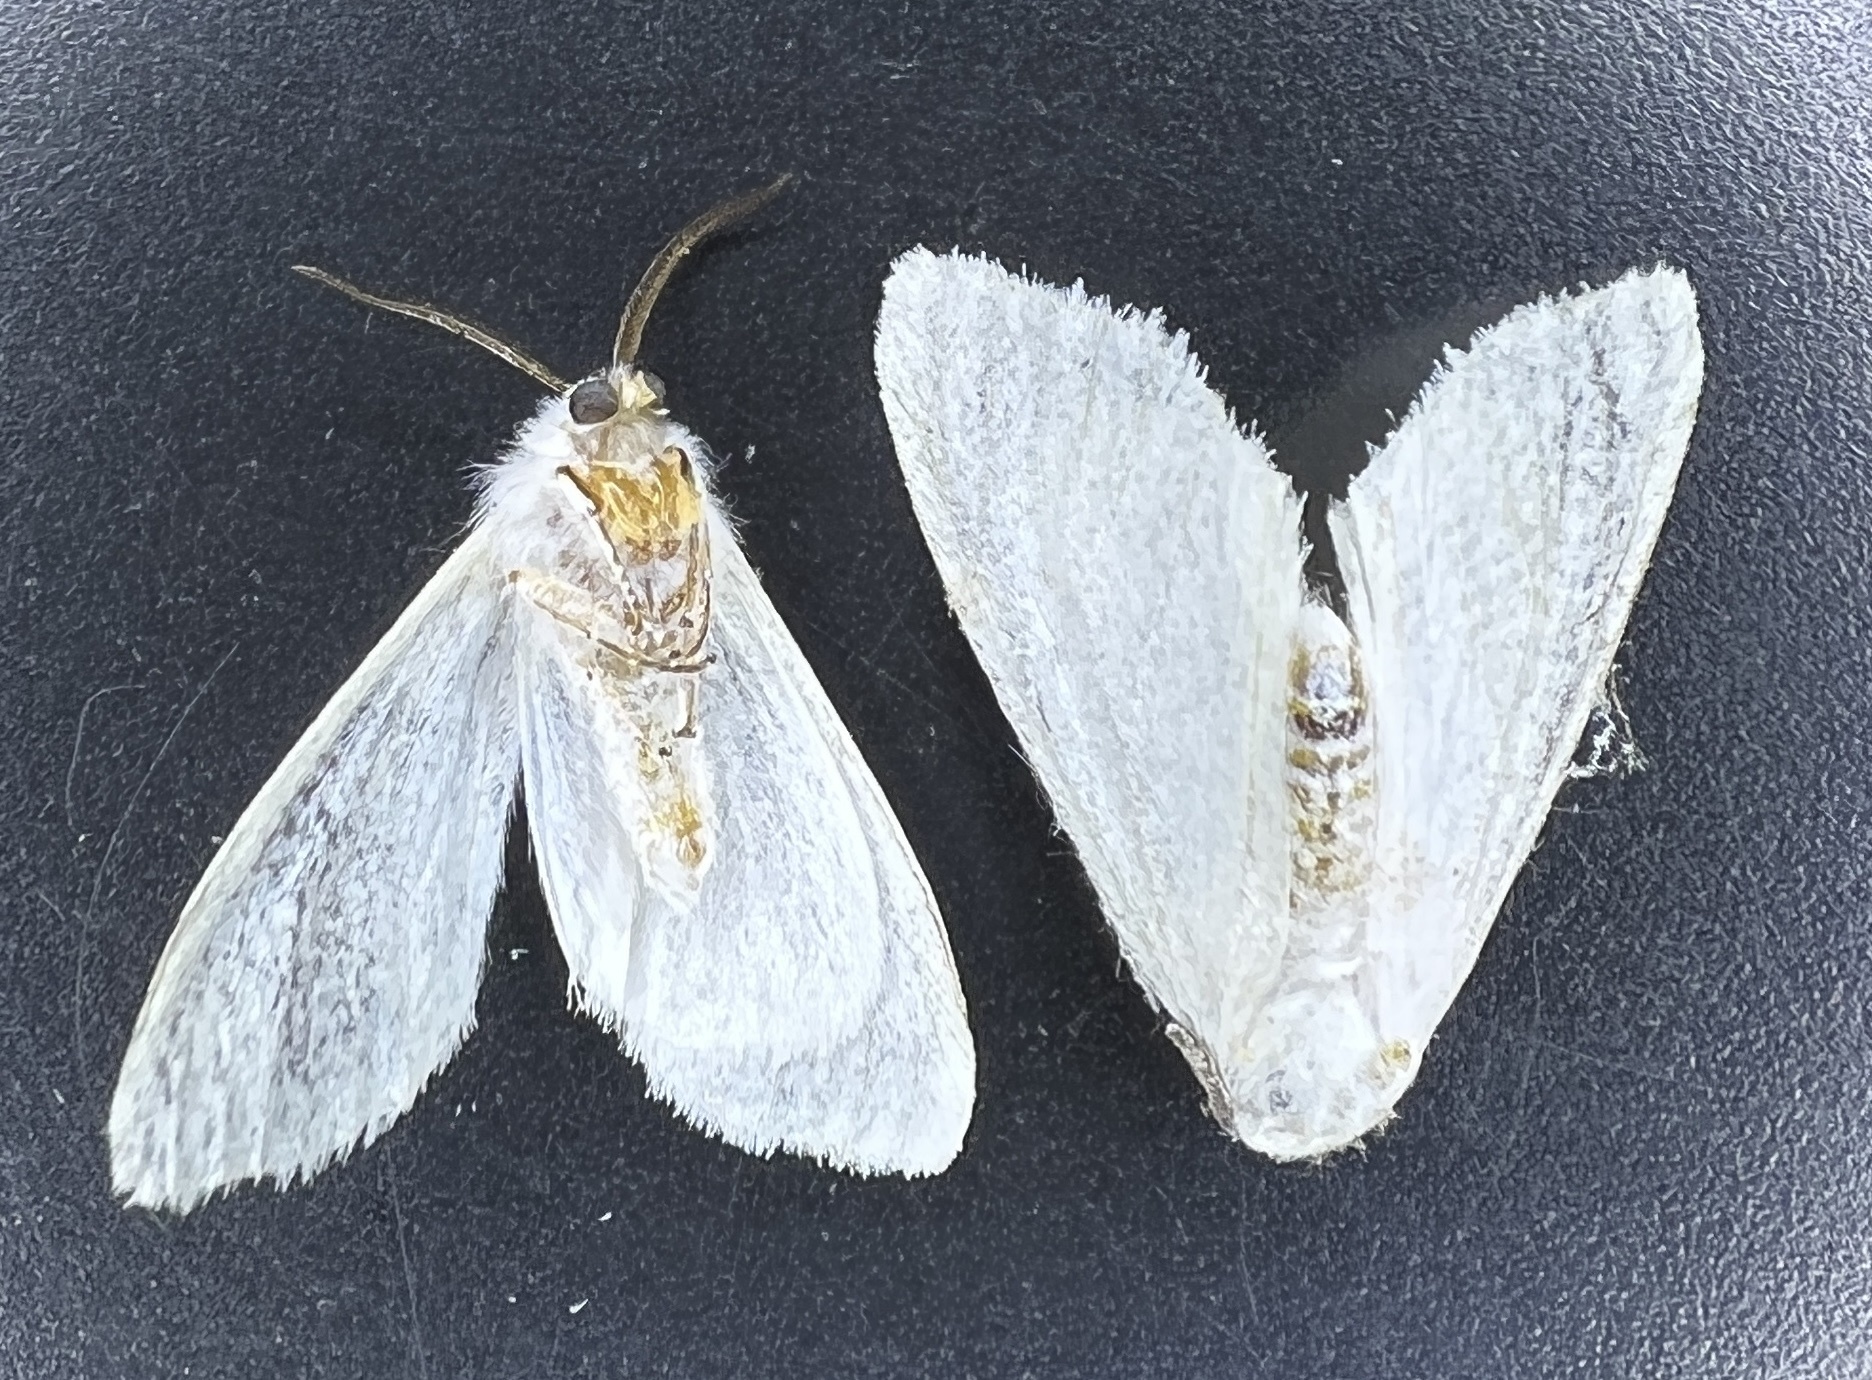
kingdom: Fungi
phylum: Ascomycota
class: Sordariomycetes
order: Hypocreales
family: Cordycipitaceae
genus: Beauveria
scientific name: Beauveria bassiana
